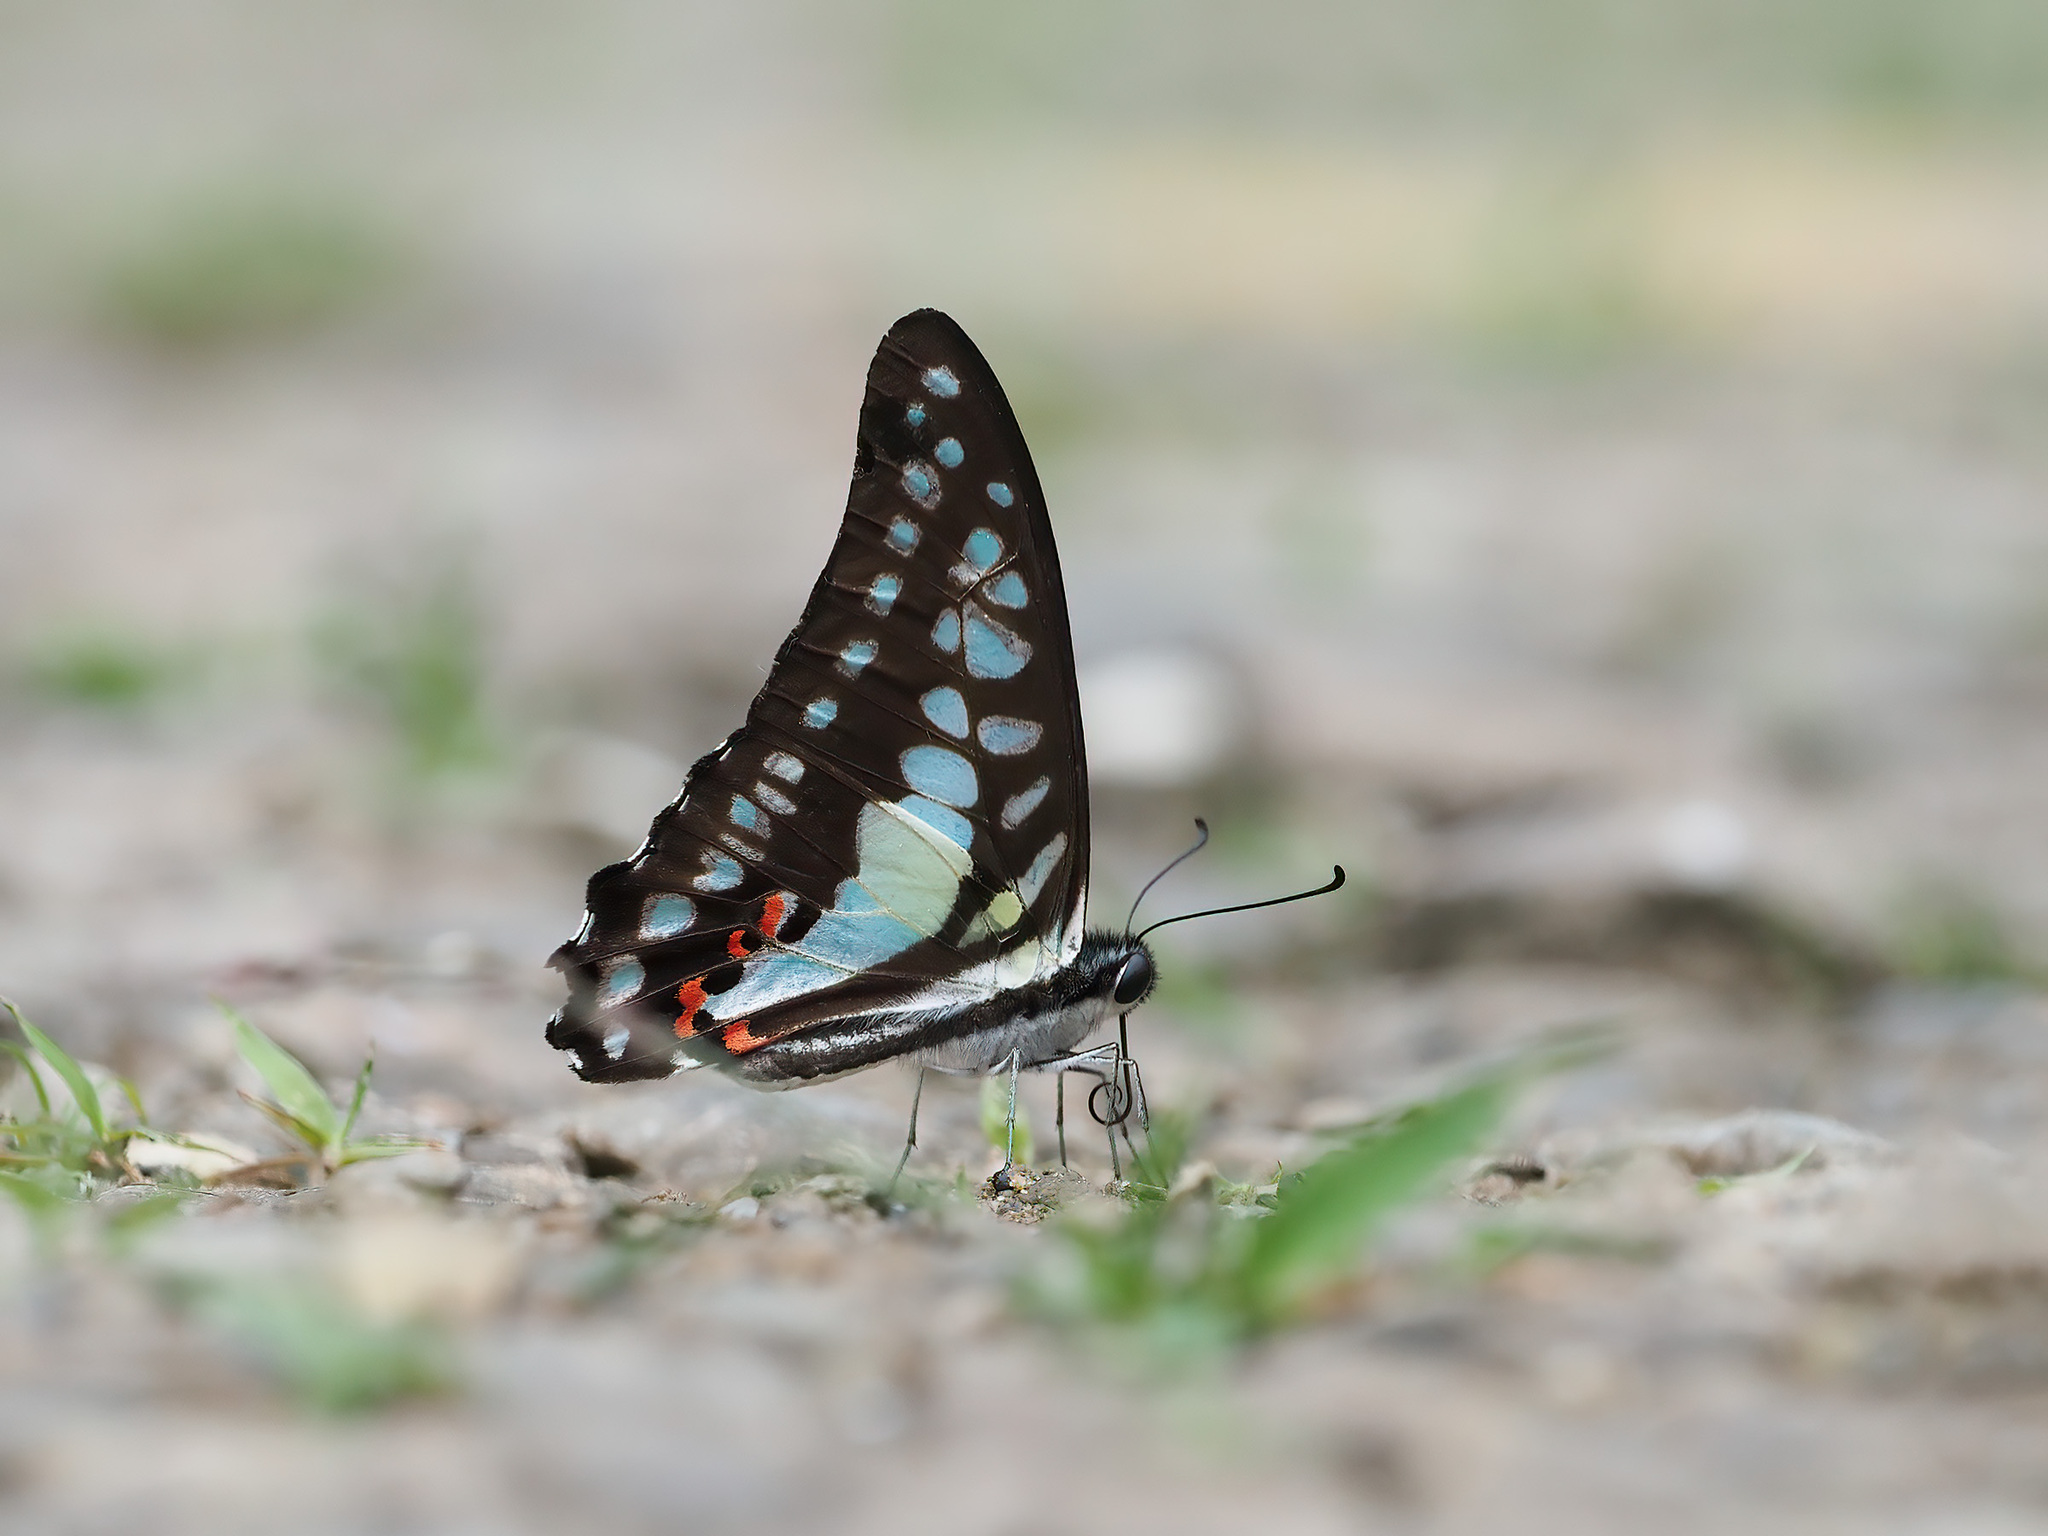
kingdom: Animalia
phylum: Arthropoda
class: Insecta
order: Lepidoptera
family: Papilionidae
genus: Graphium
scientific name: Graphium evemon
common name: Lesser jay
